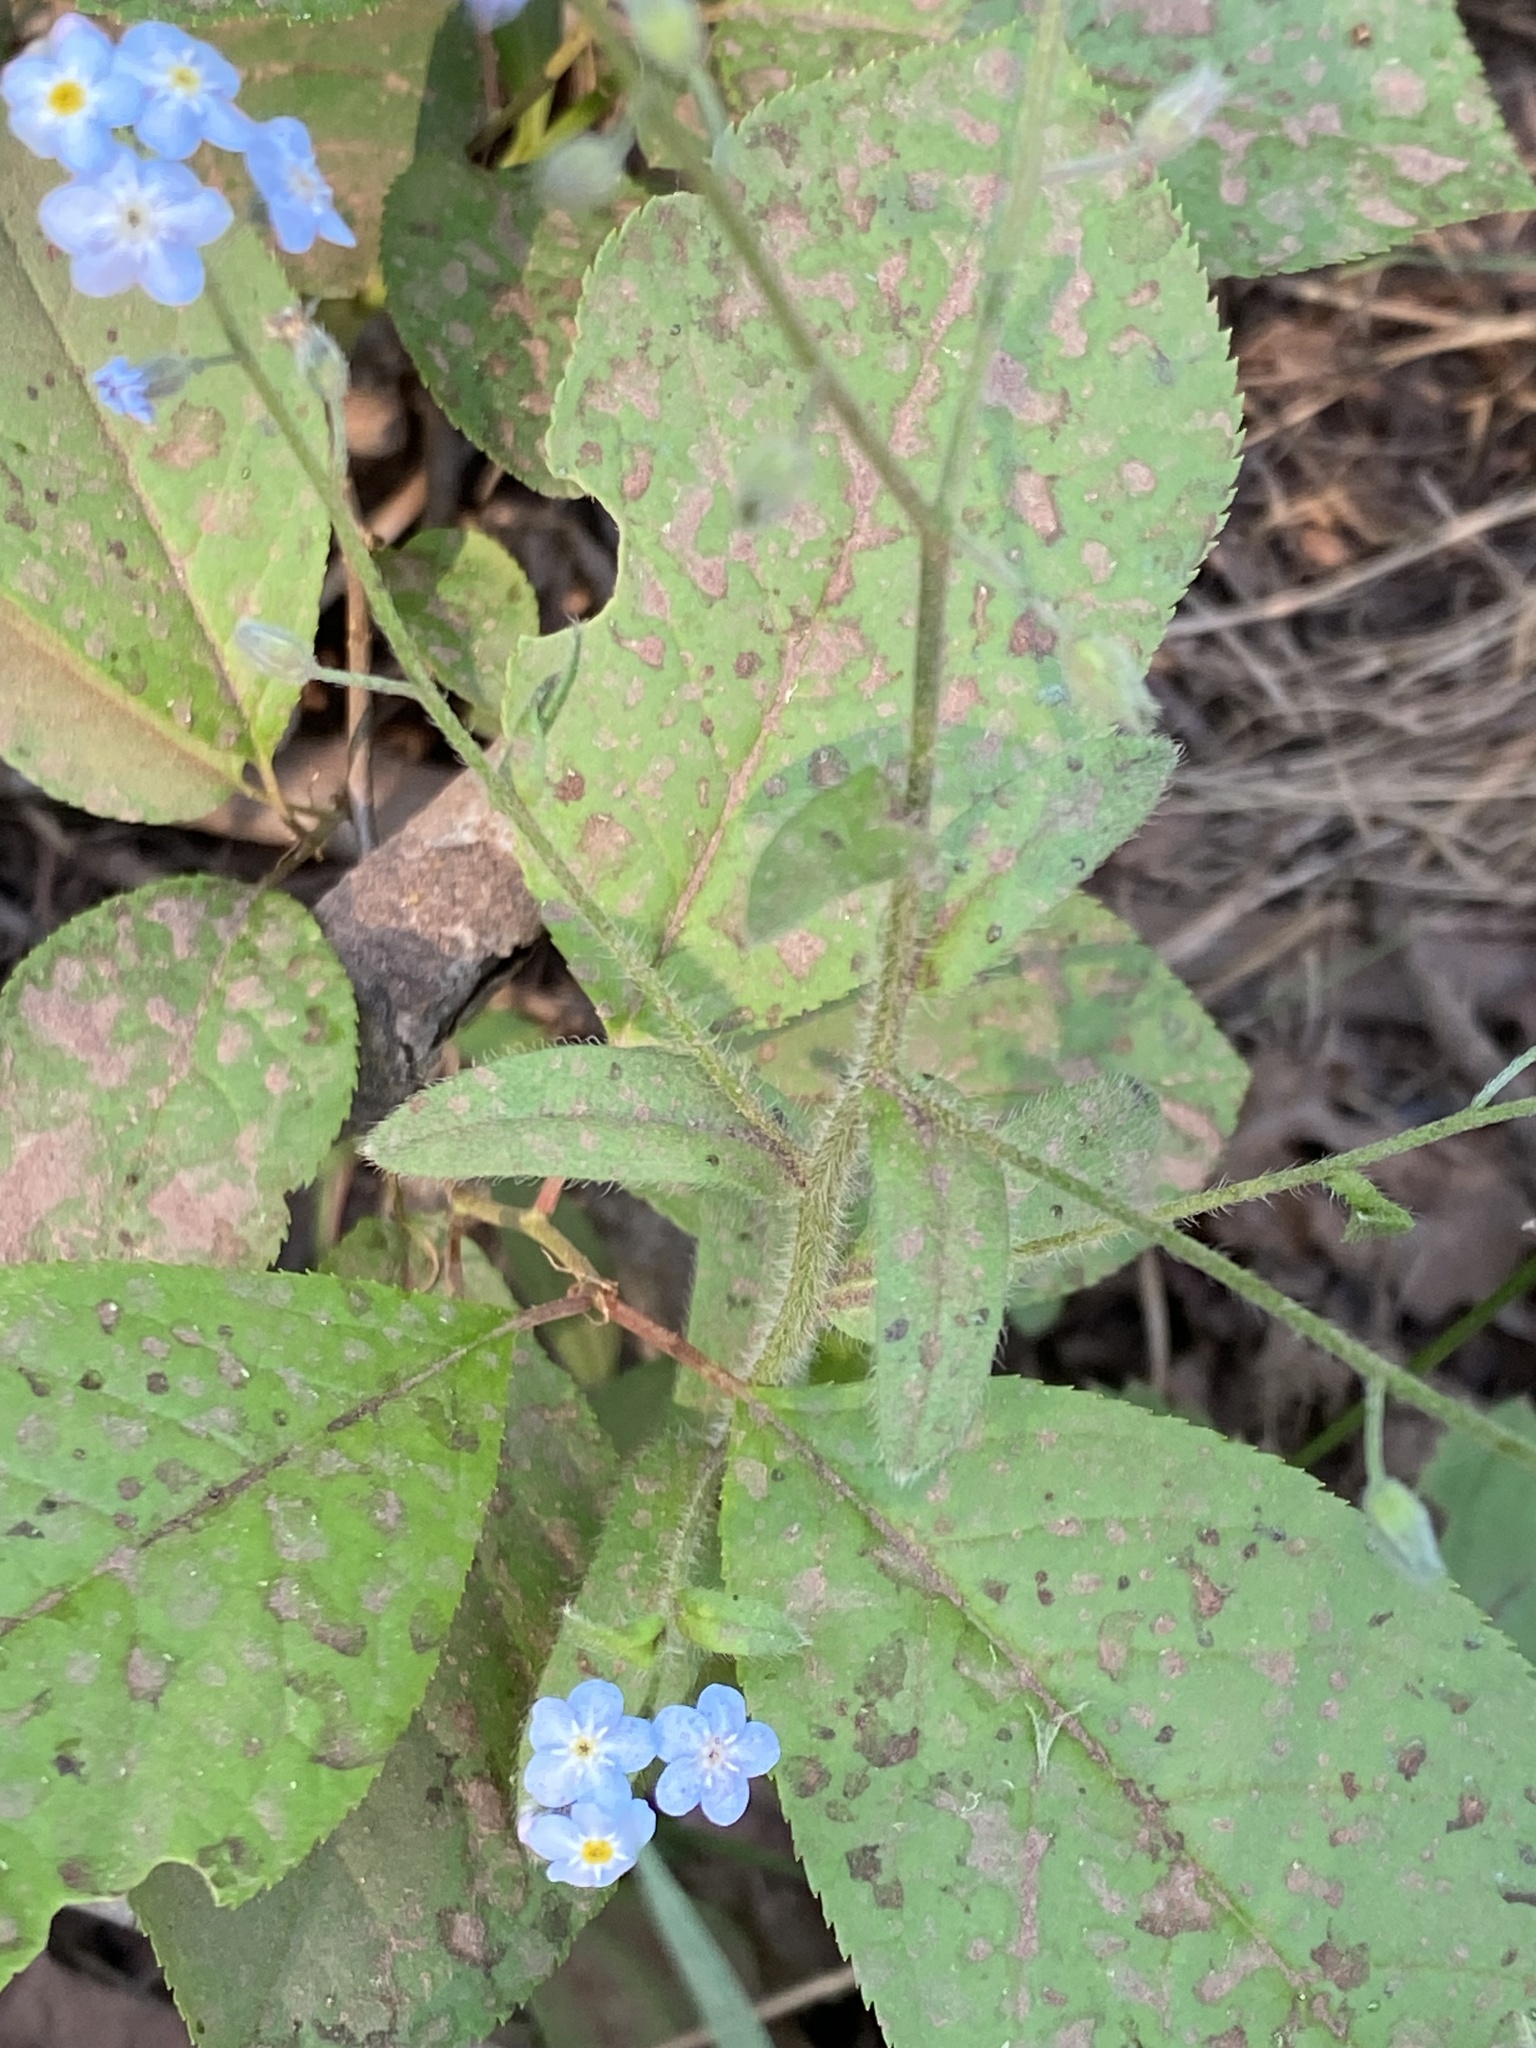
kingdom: Plantae
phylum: Tracheophyta
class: Magnoliopsida
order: Boraginales
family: Boraginaceae
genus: Myosotis
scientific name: Myosotis sylvatica
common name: Wood forget-me-not
